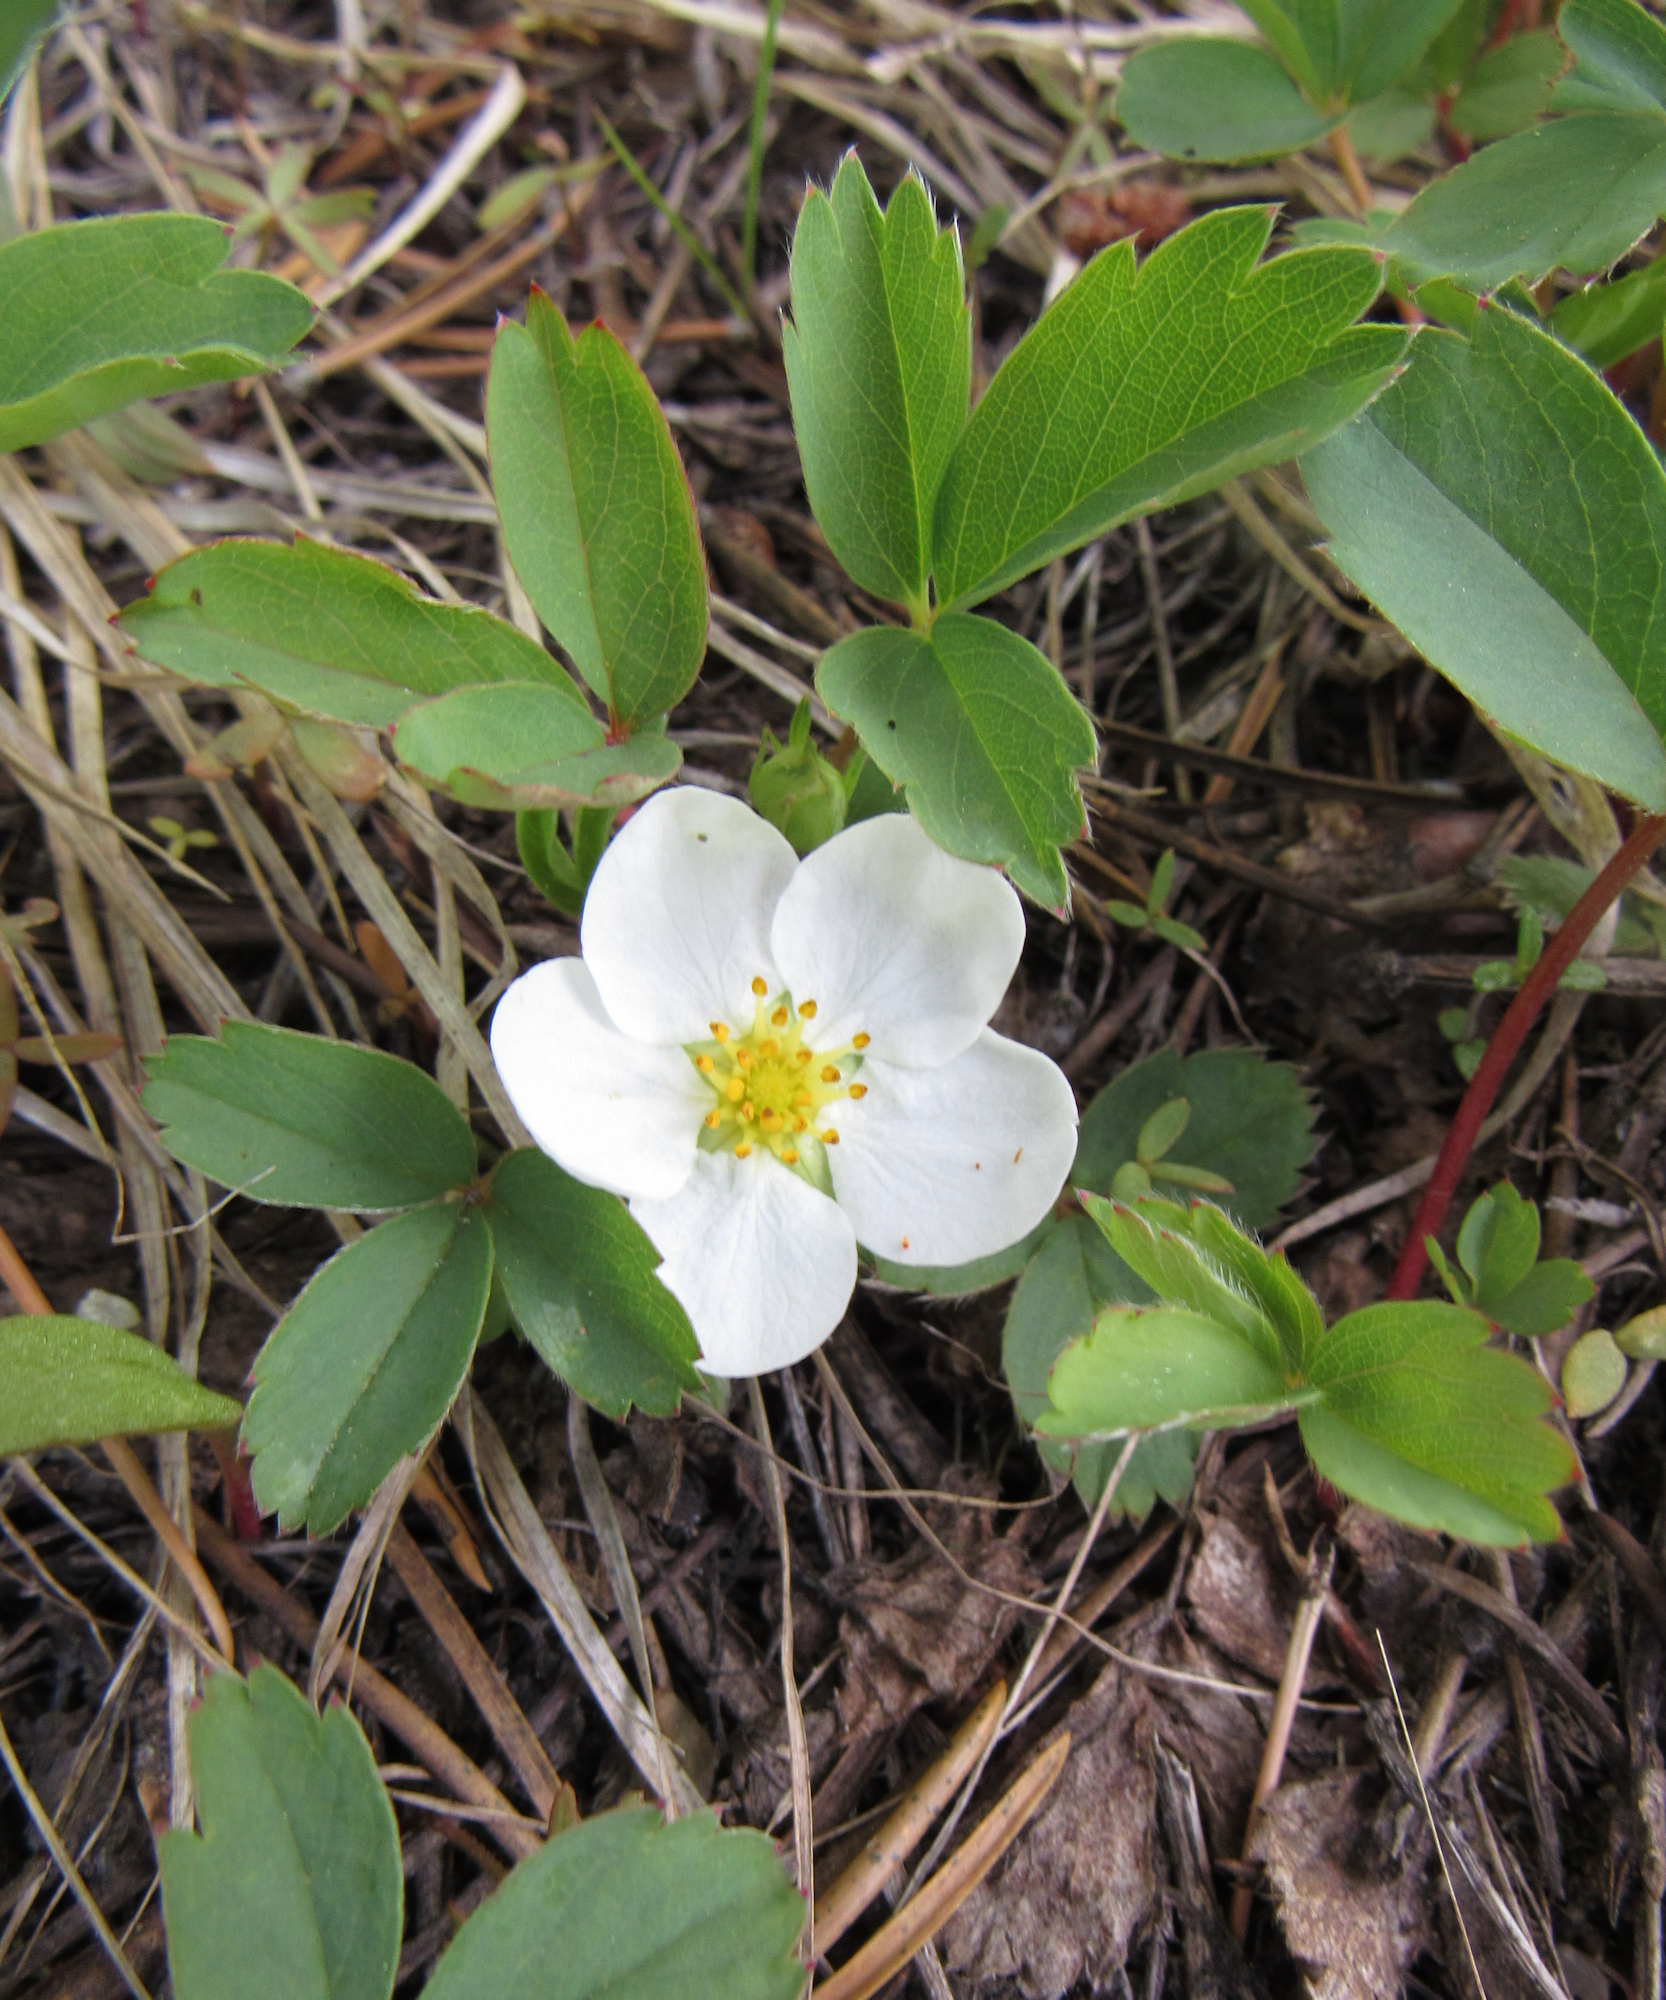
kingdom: Plantae
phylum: Tracheophyta
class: Magnoliopsida
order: Rosales
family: Rosaceae
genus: Fragaria
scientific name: Fragaria virginiana
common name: Thickleaved wild strawberry
